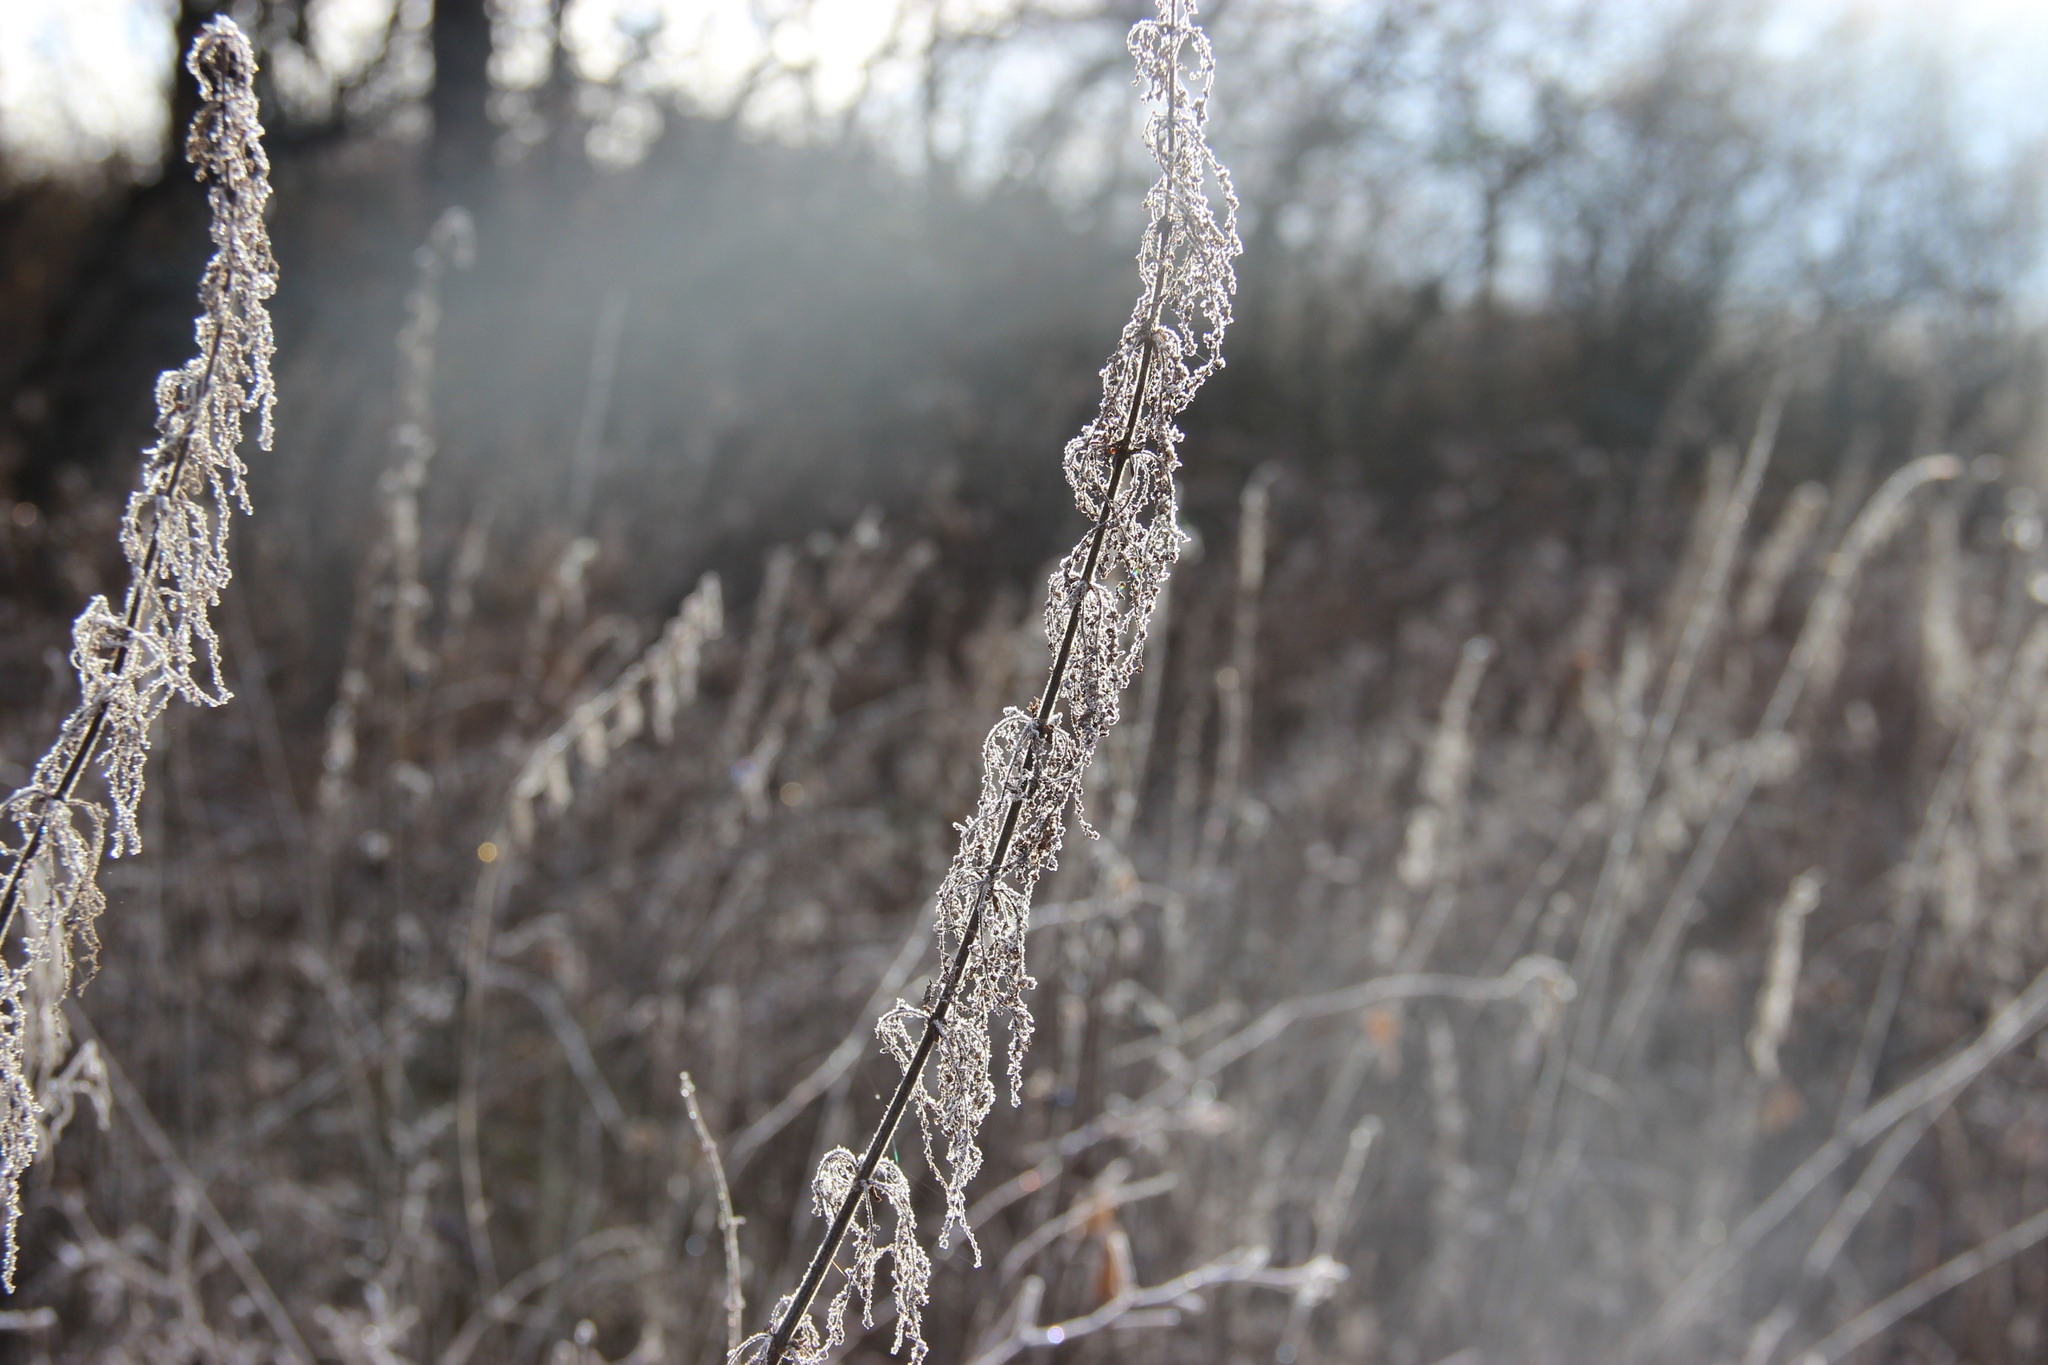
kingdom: Plantae
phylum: Tracheophyta
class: Magnoliopsida
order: Rosales
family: Urticaceae
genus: Urtica
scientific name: Urtica dioica
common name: Common nettle
